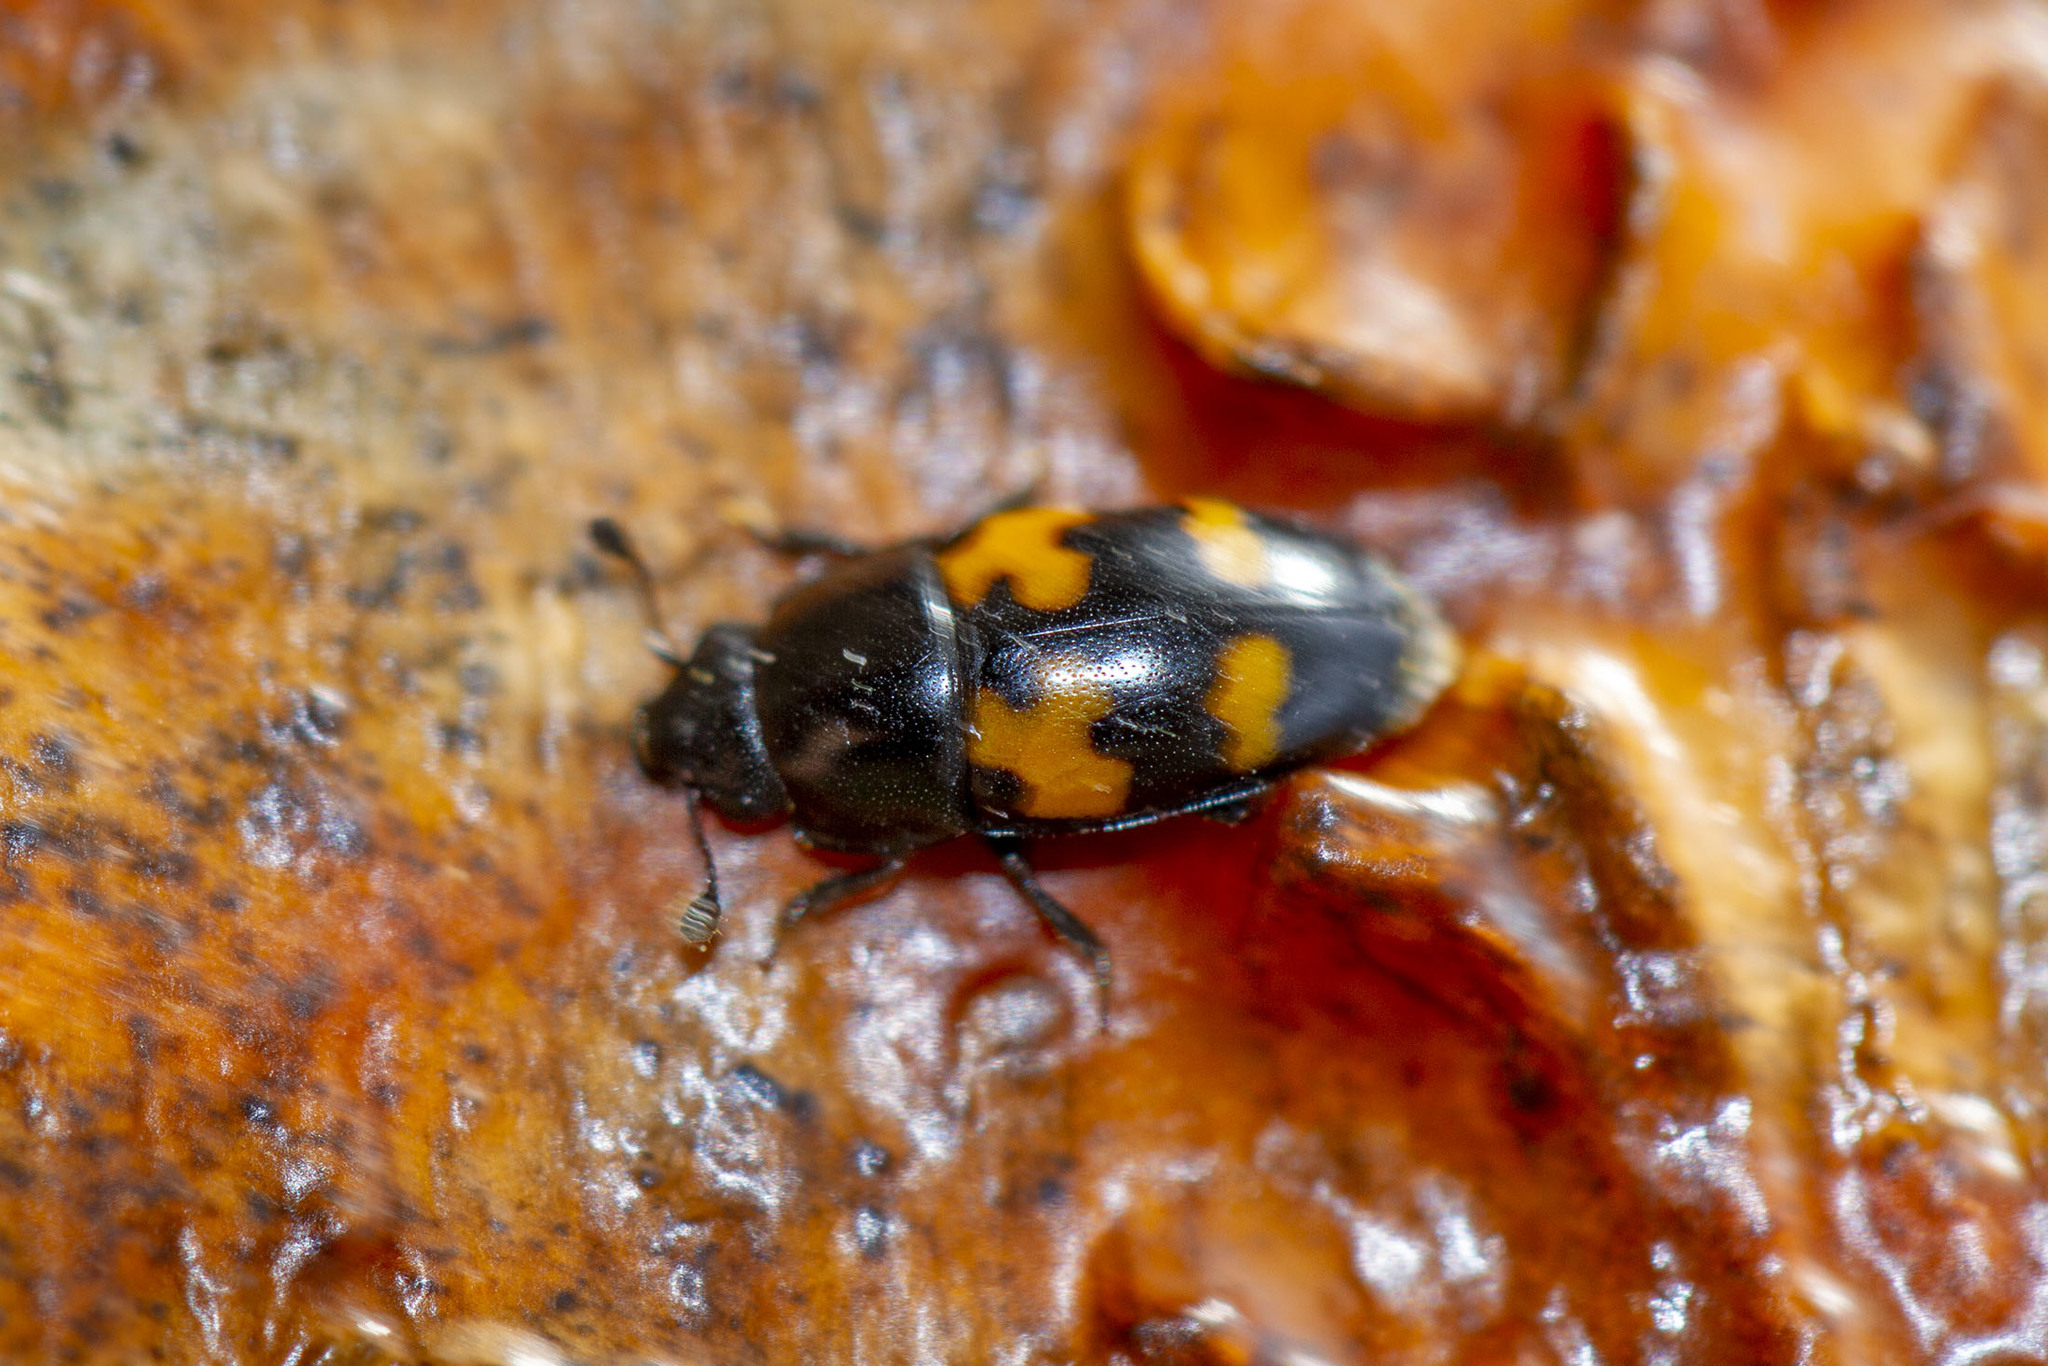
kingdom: Animalia
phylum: Arthropoda
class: Insecta
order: Coleoptera
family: Nitidulidae
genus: Glischrochilus
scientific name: Glischrochilus fasciatus
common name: Picnic beetle
